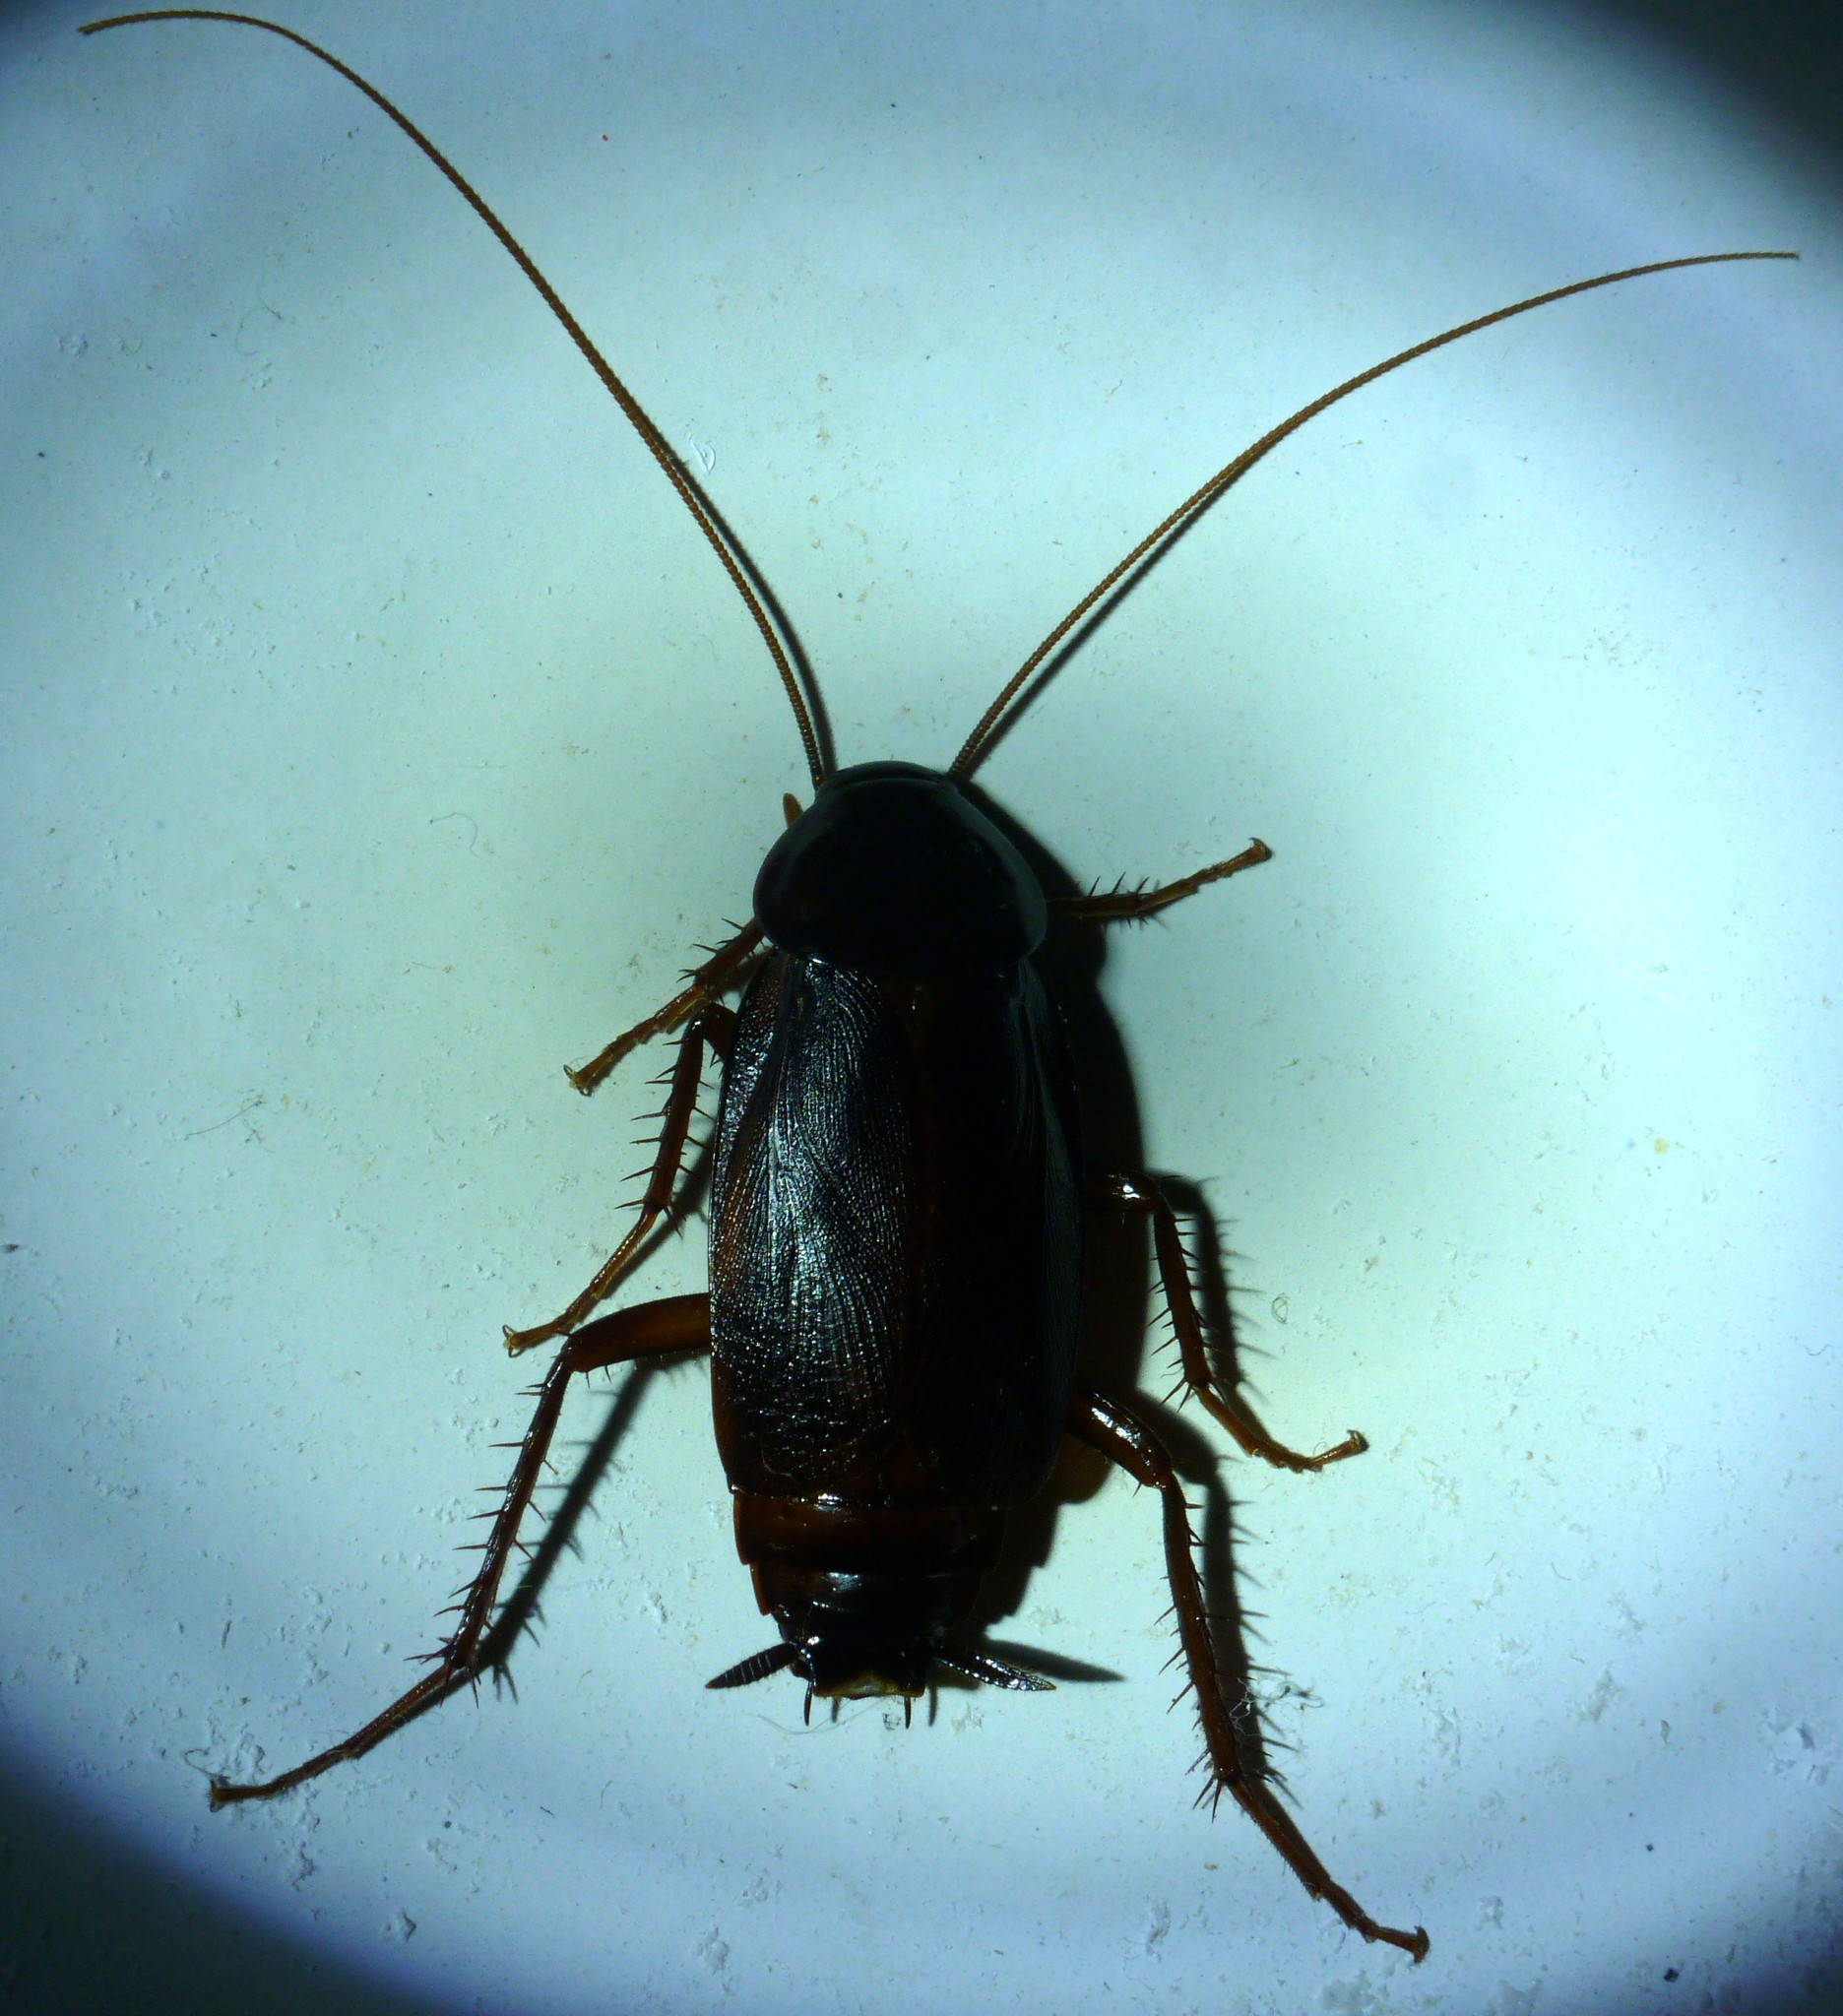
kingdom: Animalia
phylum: Arthropoda
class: Insecta
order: Blattodea
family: Blattidae
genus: Blatta
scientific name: Blatta orientalis
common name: Oriental cockroach
